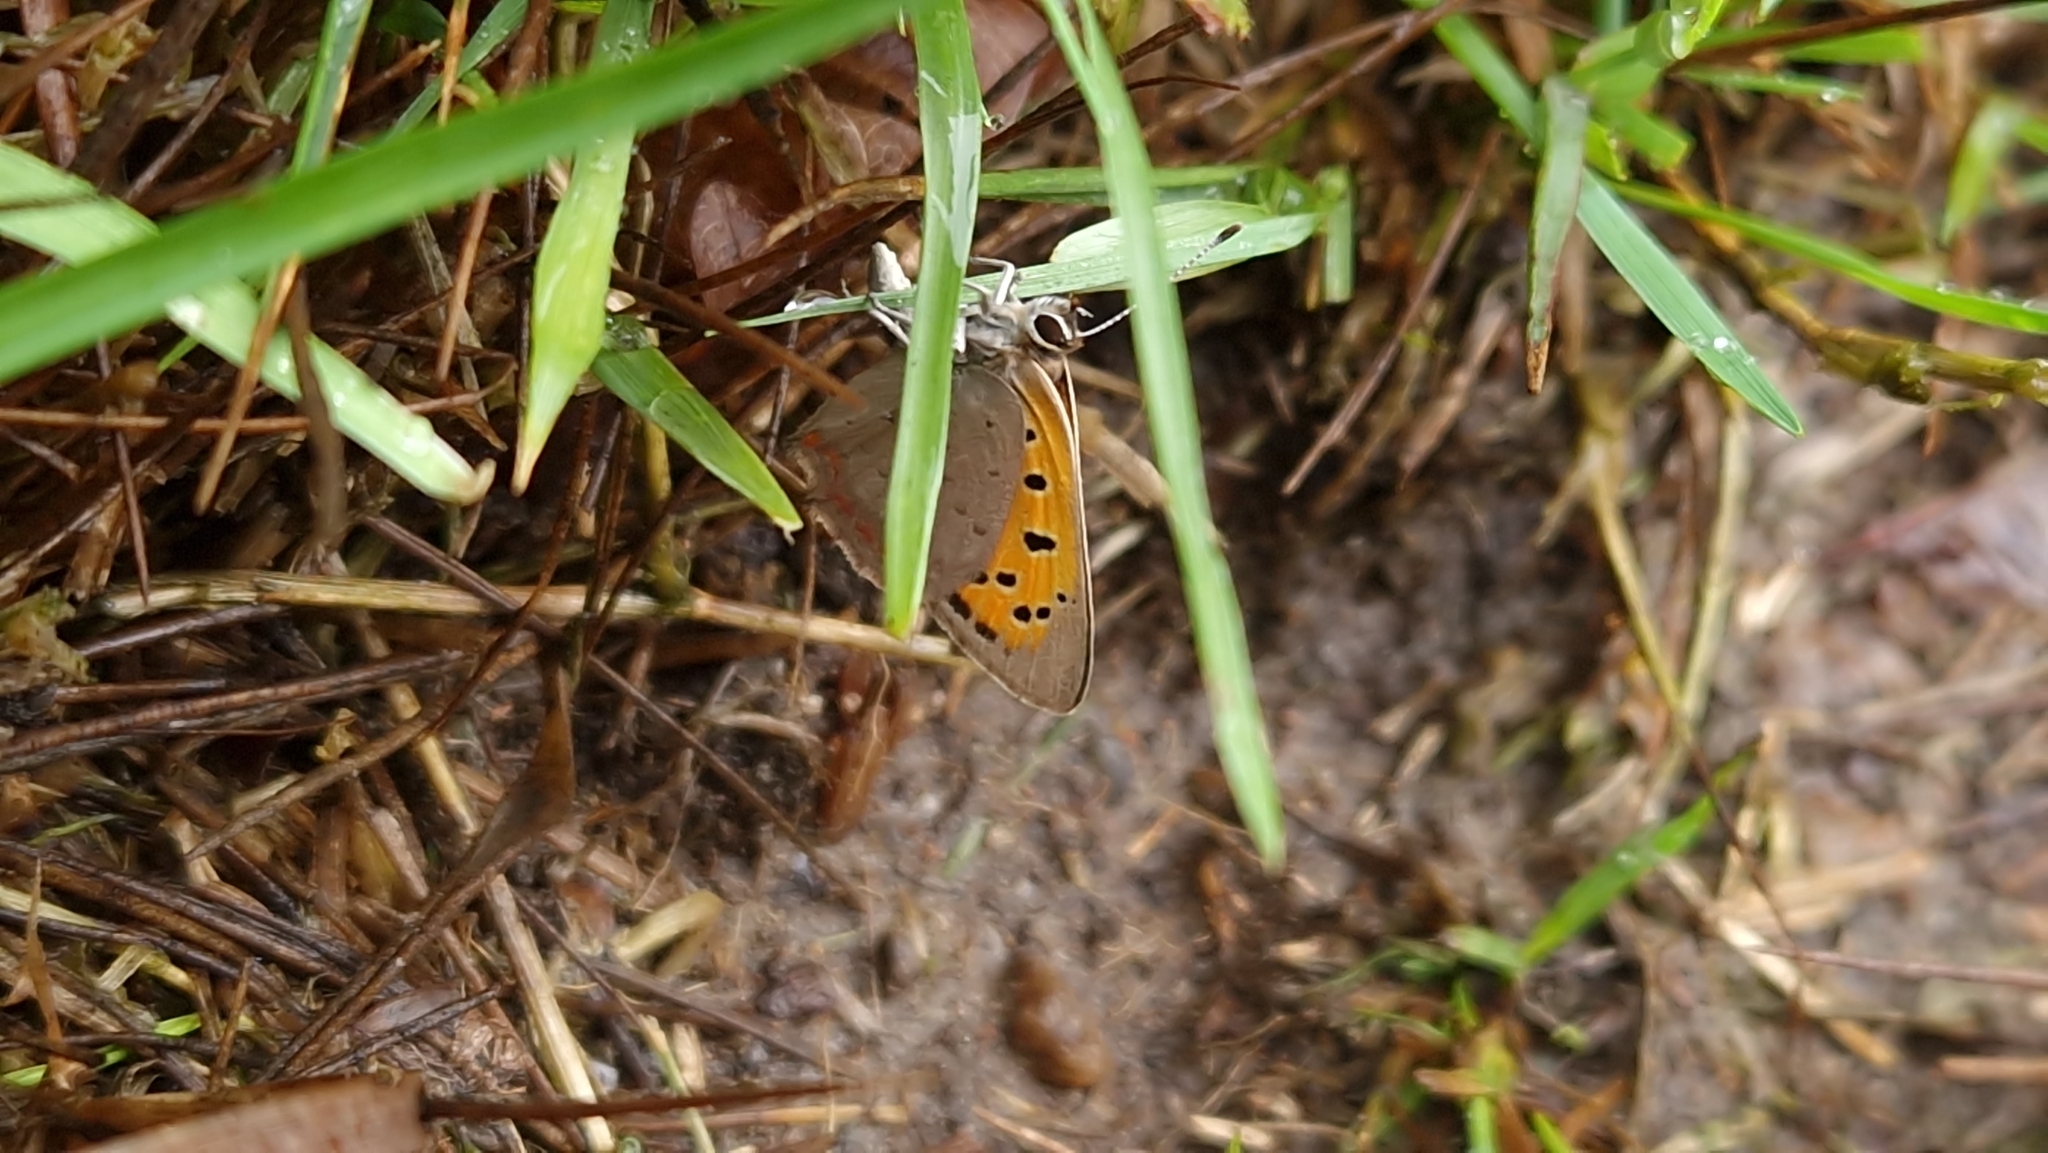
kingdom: Animalia
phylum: Arthropoda
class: Insecta
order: Lepidoptera
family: Lycaenidae
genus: Lycaena
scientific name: Lycaena phlaeas
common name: Small copper
